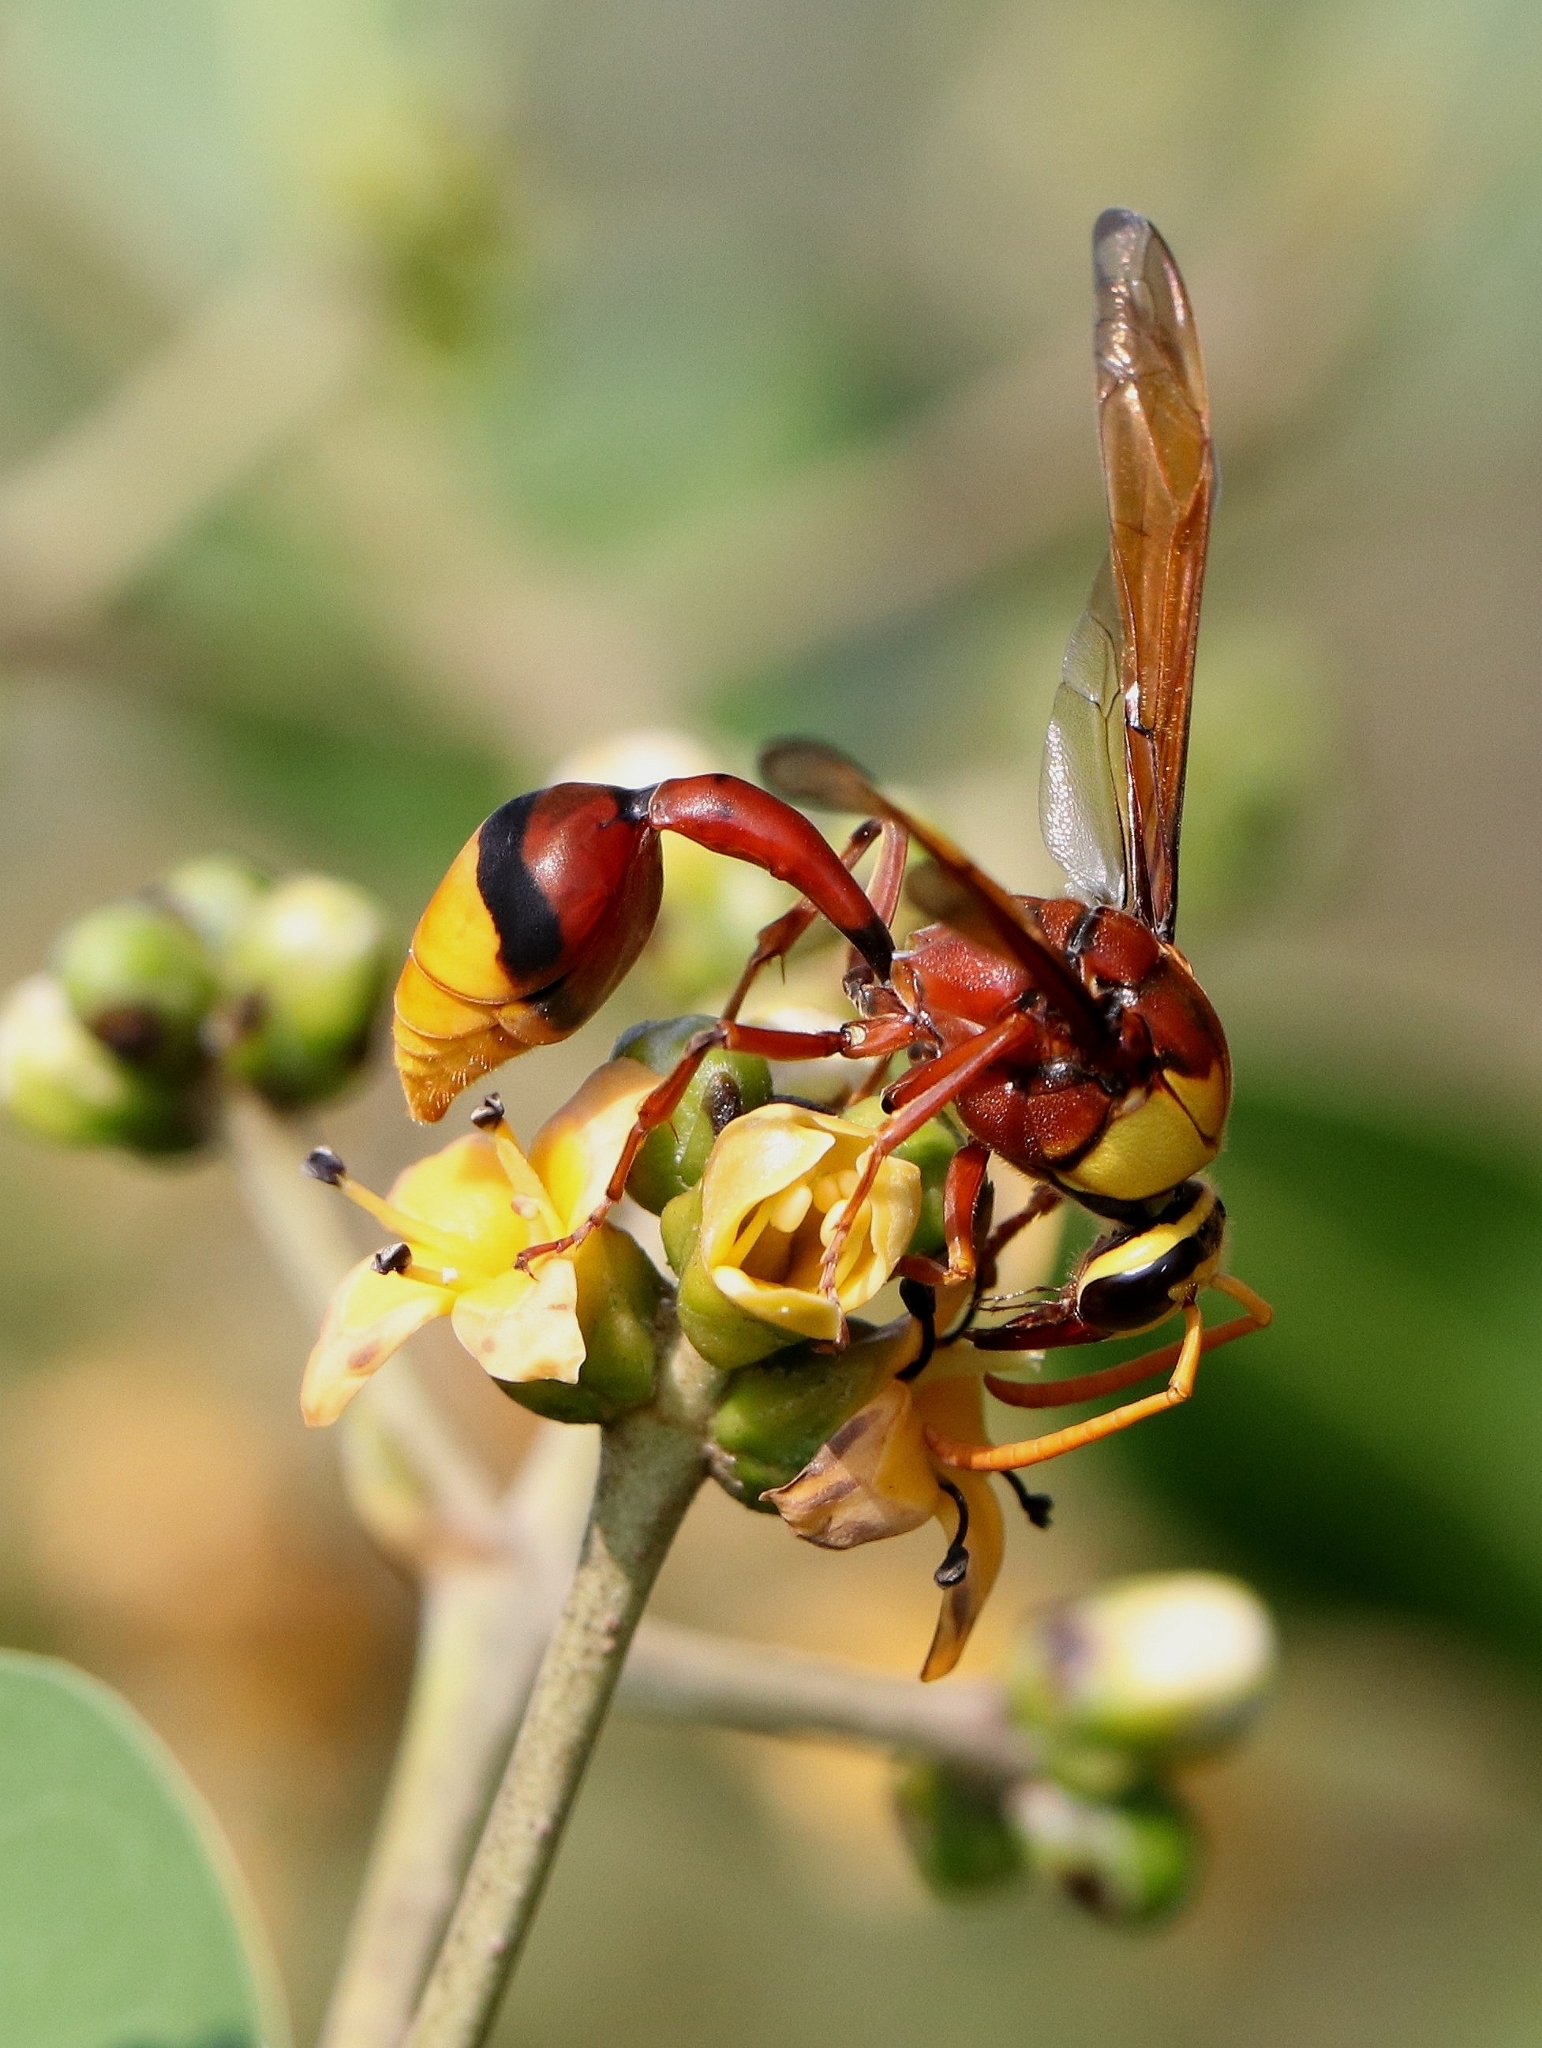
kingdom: Animalia
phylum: Arthropoda
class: Insecta
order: Hymenoptera
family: Eumenidae
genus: Delta
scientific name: Delta pyriforme
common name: Wasp
